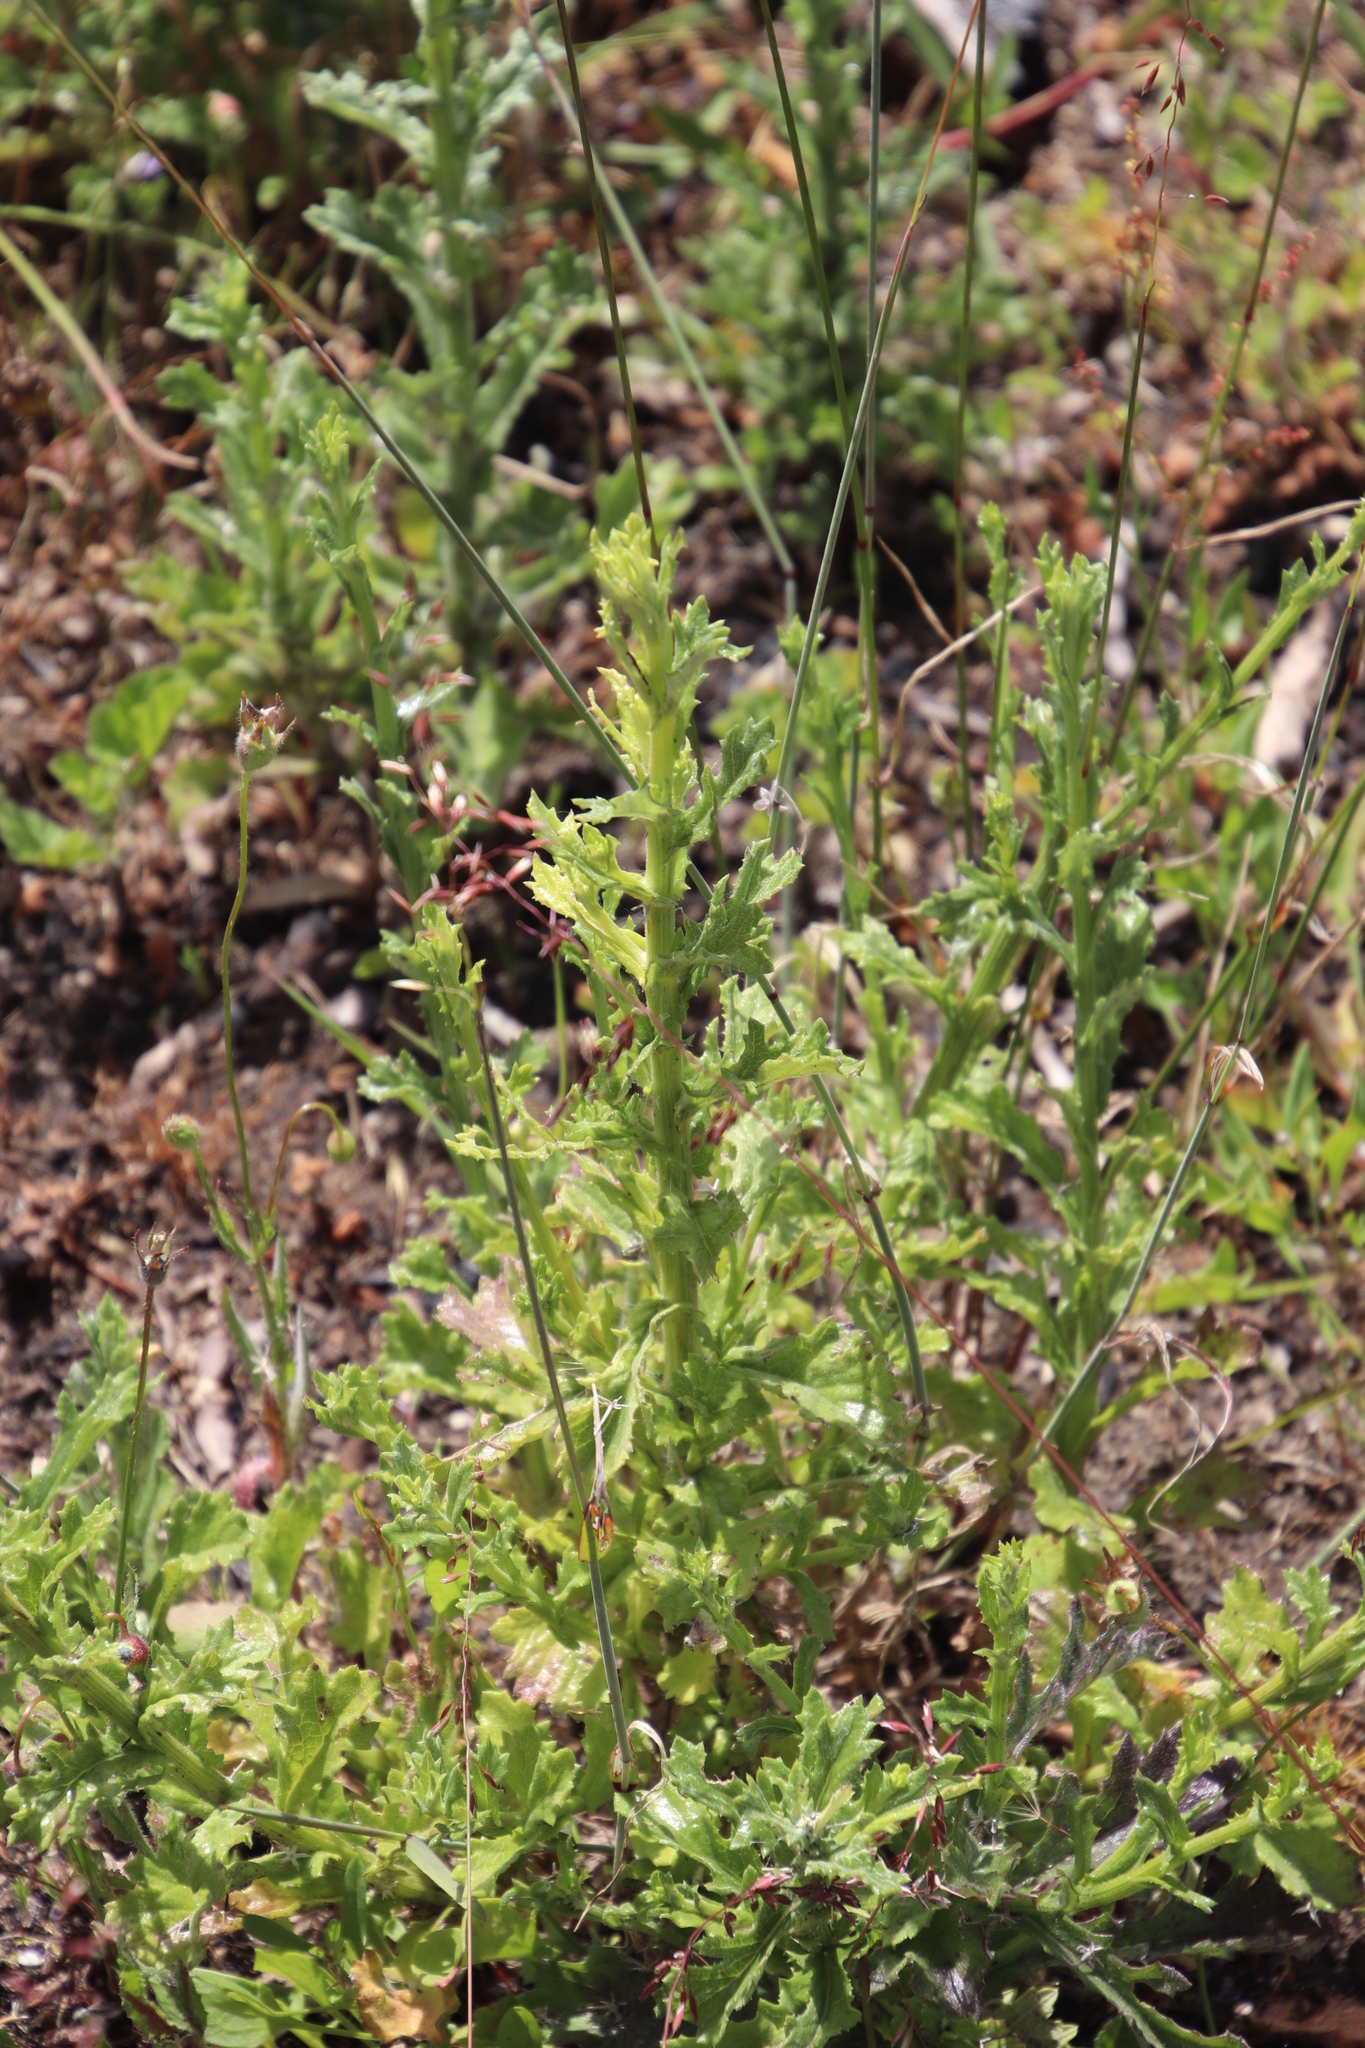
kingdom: Plantae
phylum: Tracheophyta
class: Magnoliopsida
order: Asterales
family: Asteraceae
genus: Senecio
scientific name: Senecio pubigerus
